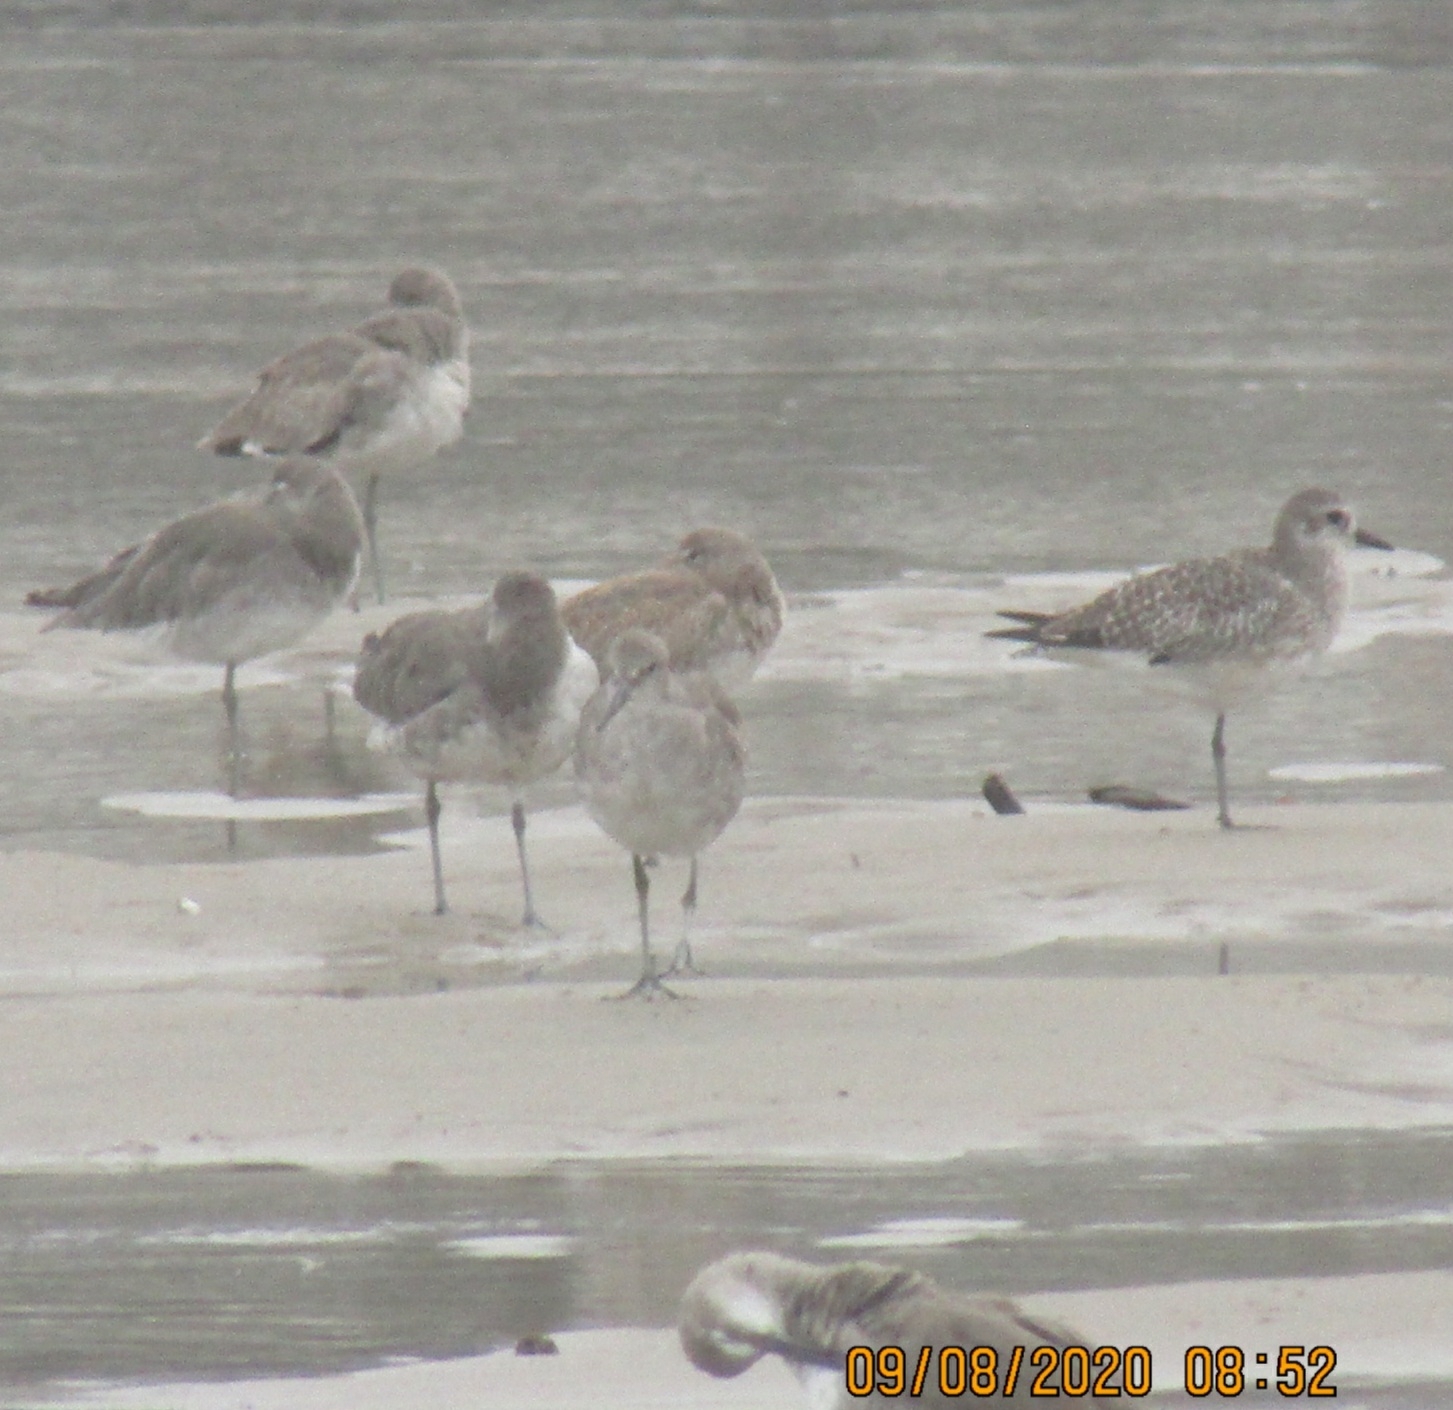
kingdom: Animalia
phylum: Chordata
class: Aves
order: Charadriiformes
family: Charadriidae
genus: Pluvialis
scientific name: Pluvialis squatarola
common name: Grey plover
